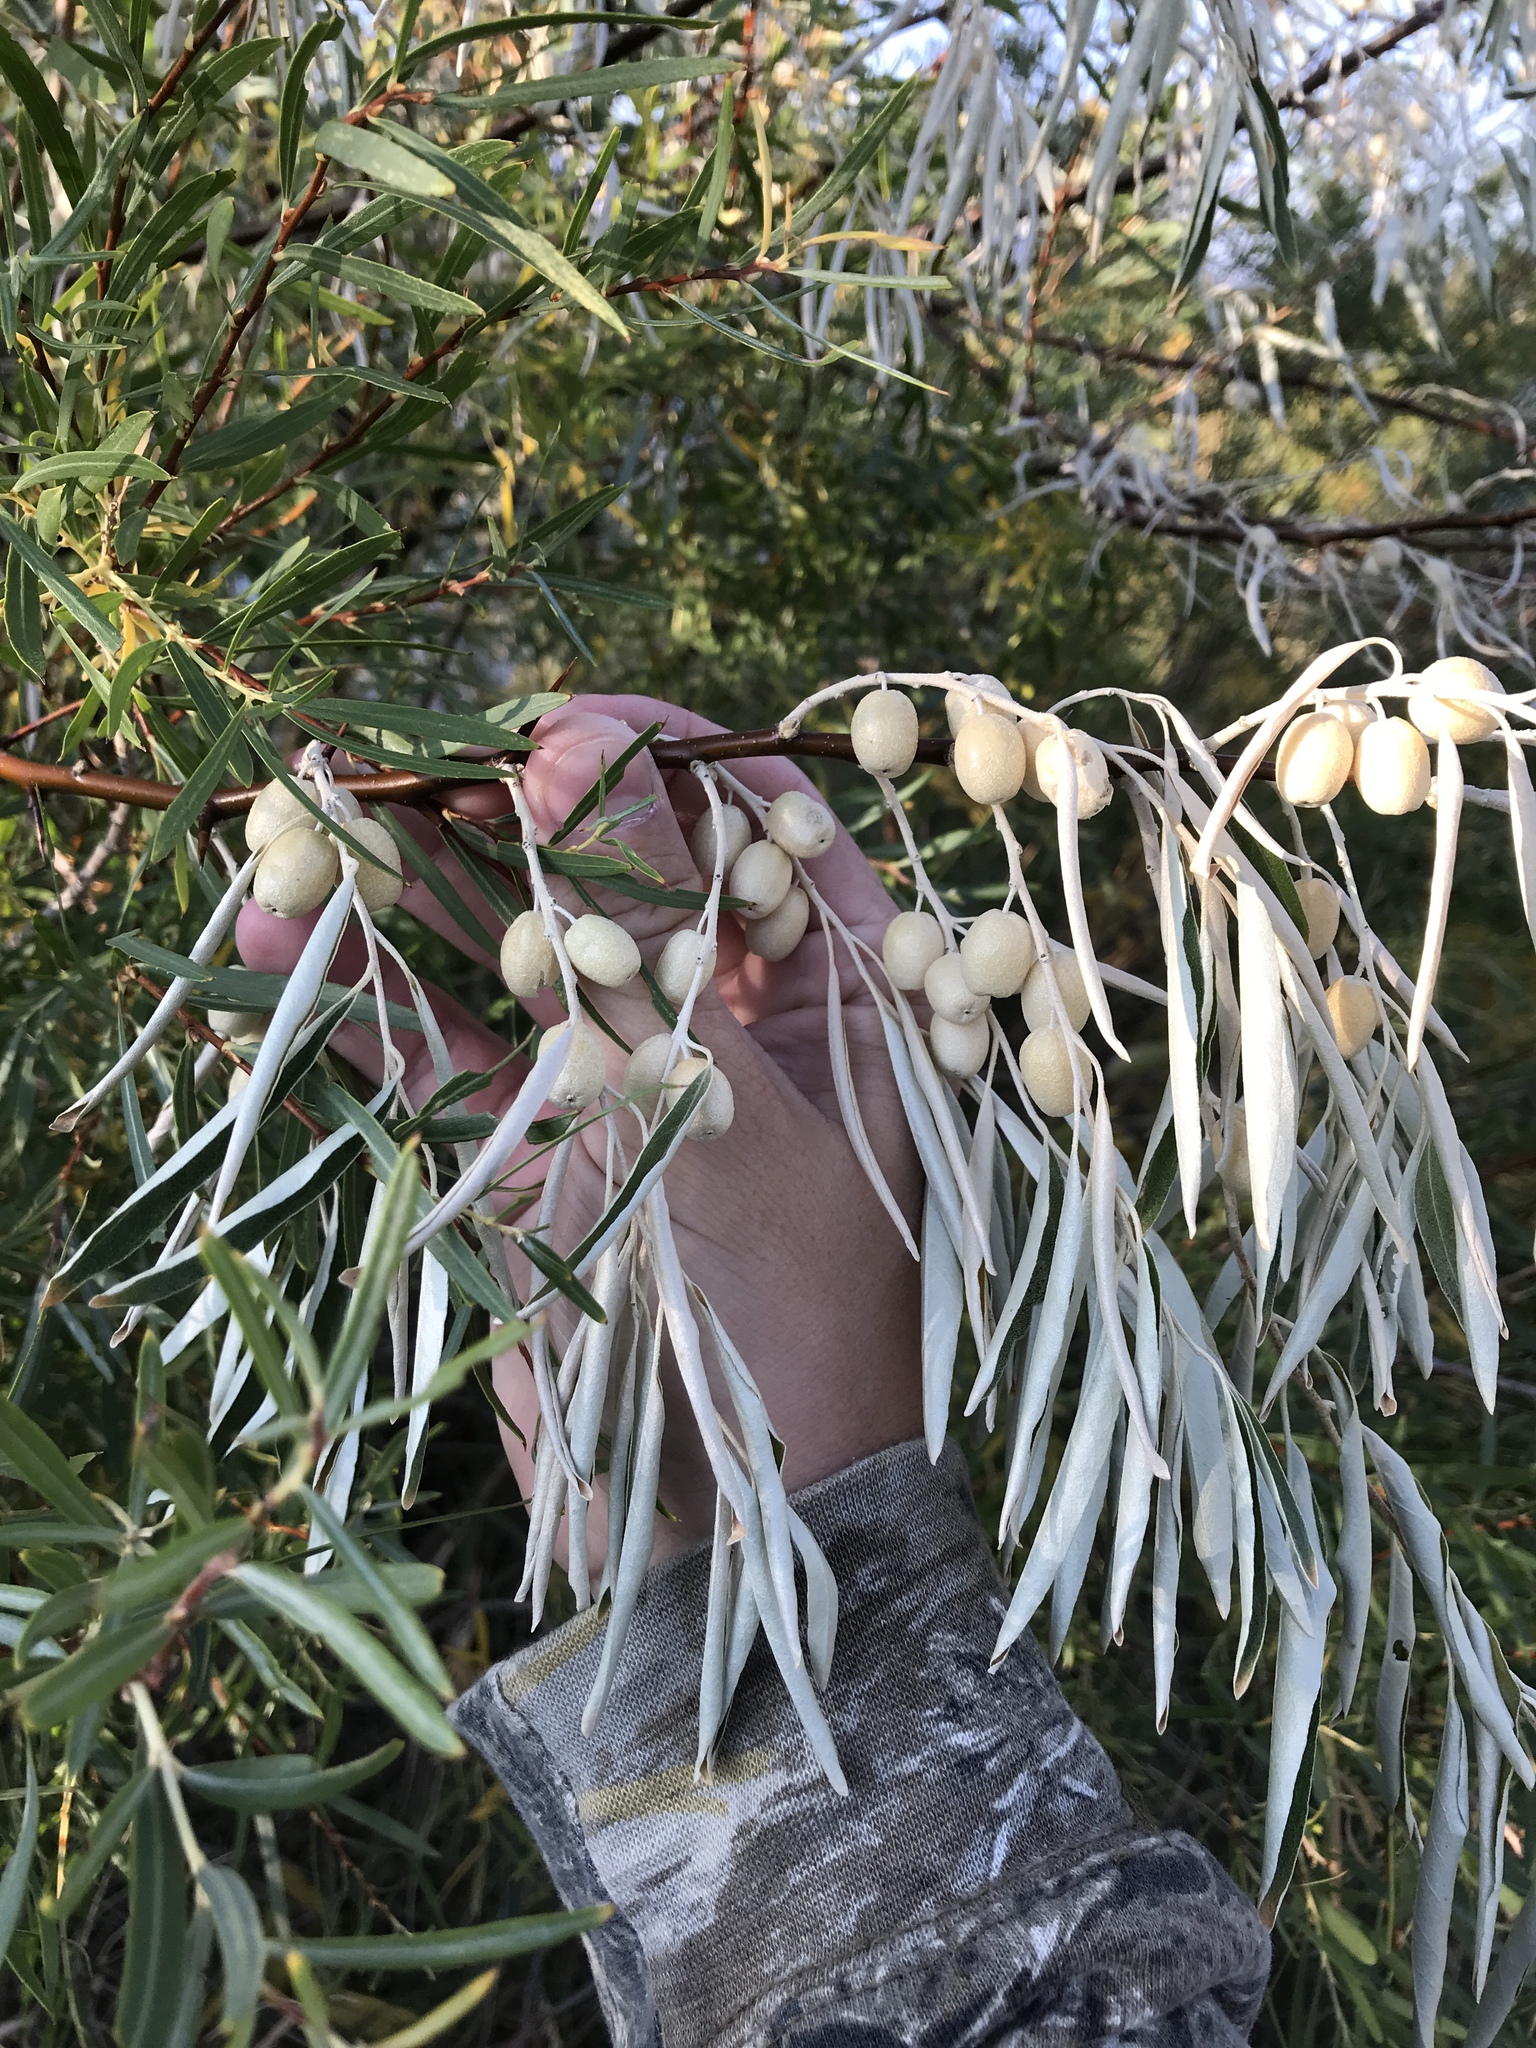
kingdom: Plantae
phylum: Tracheophyta
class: Magnoliopsida
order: Rosales
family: Elaeagnaceae
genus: Elaeagnus
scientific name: Elaeagnus angustifolia
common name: Russian olive
